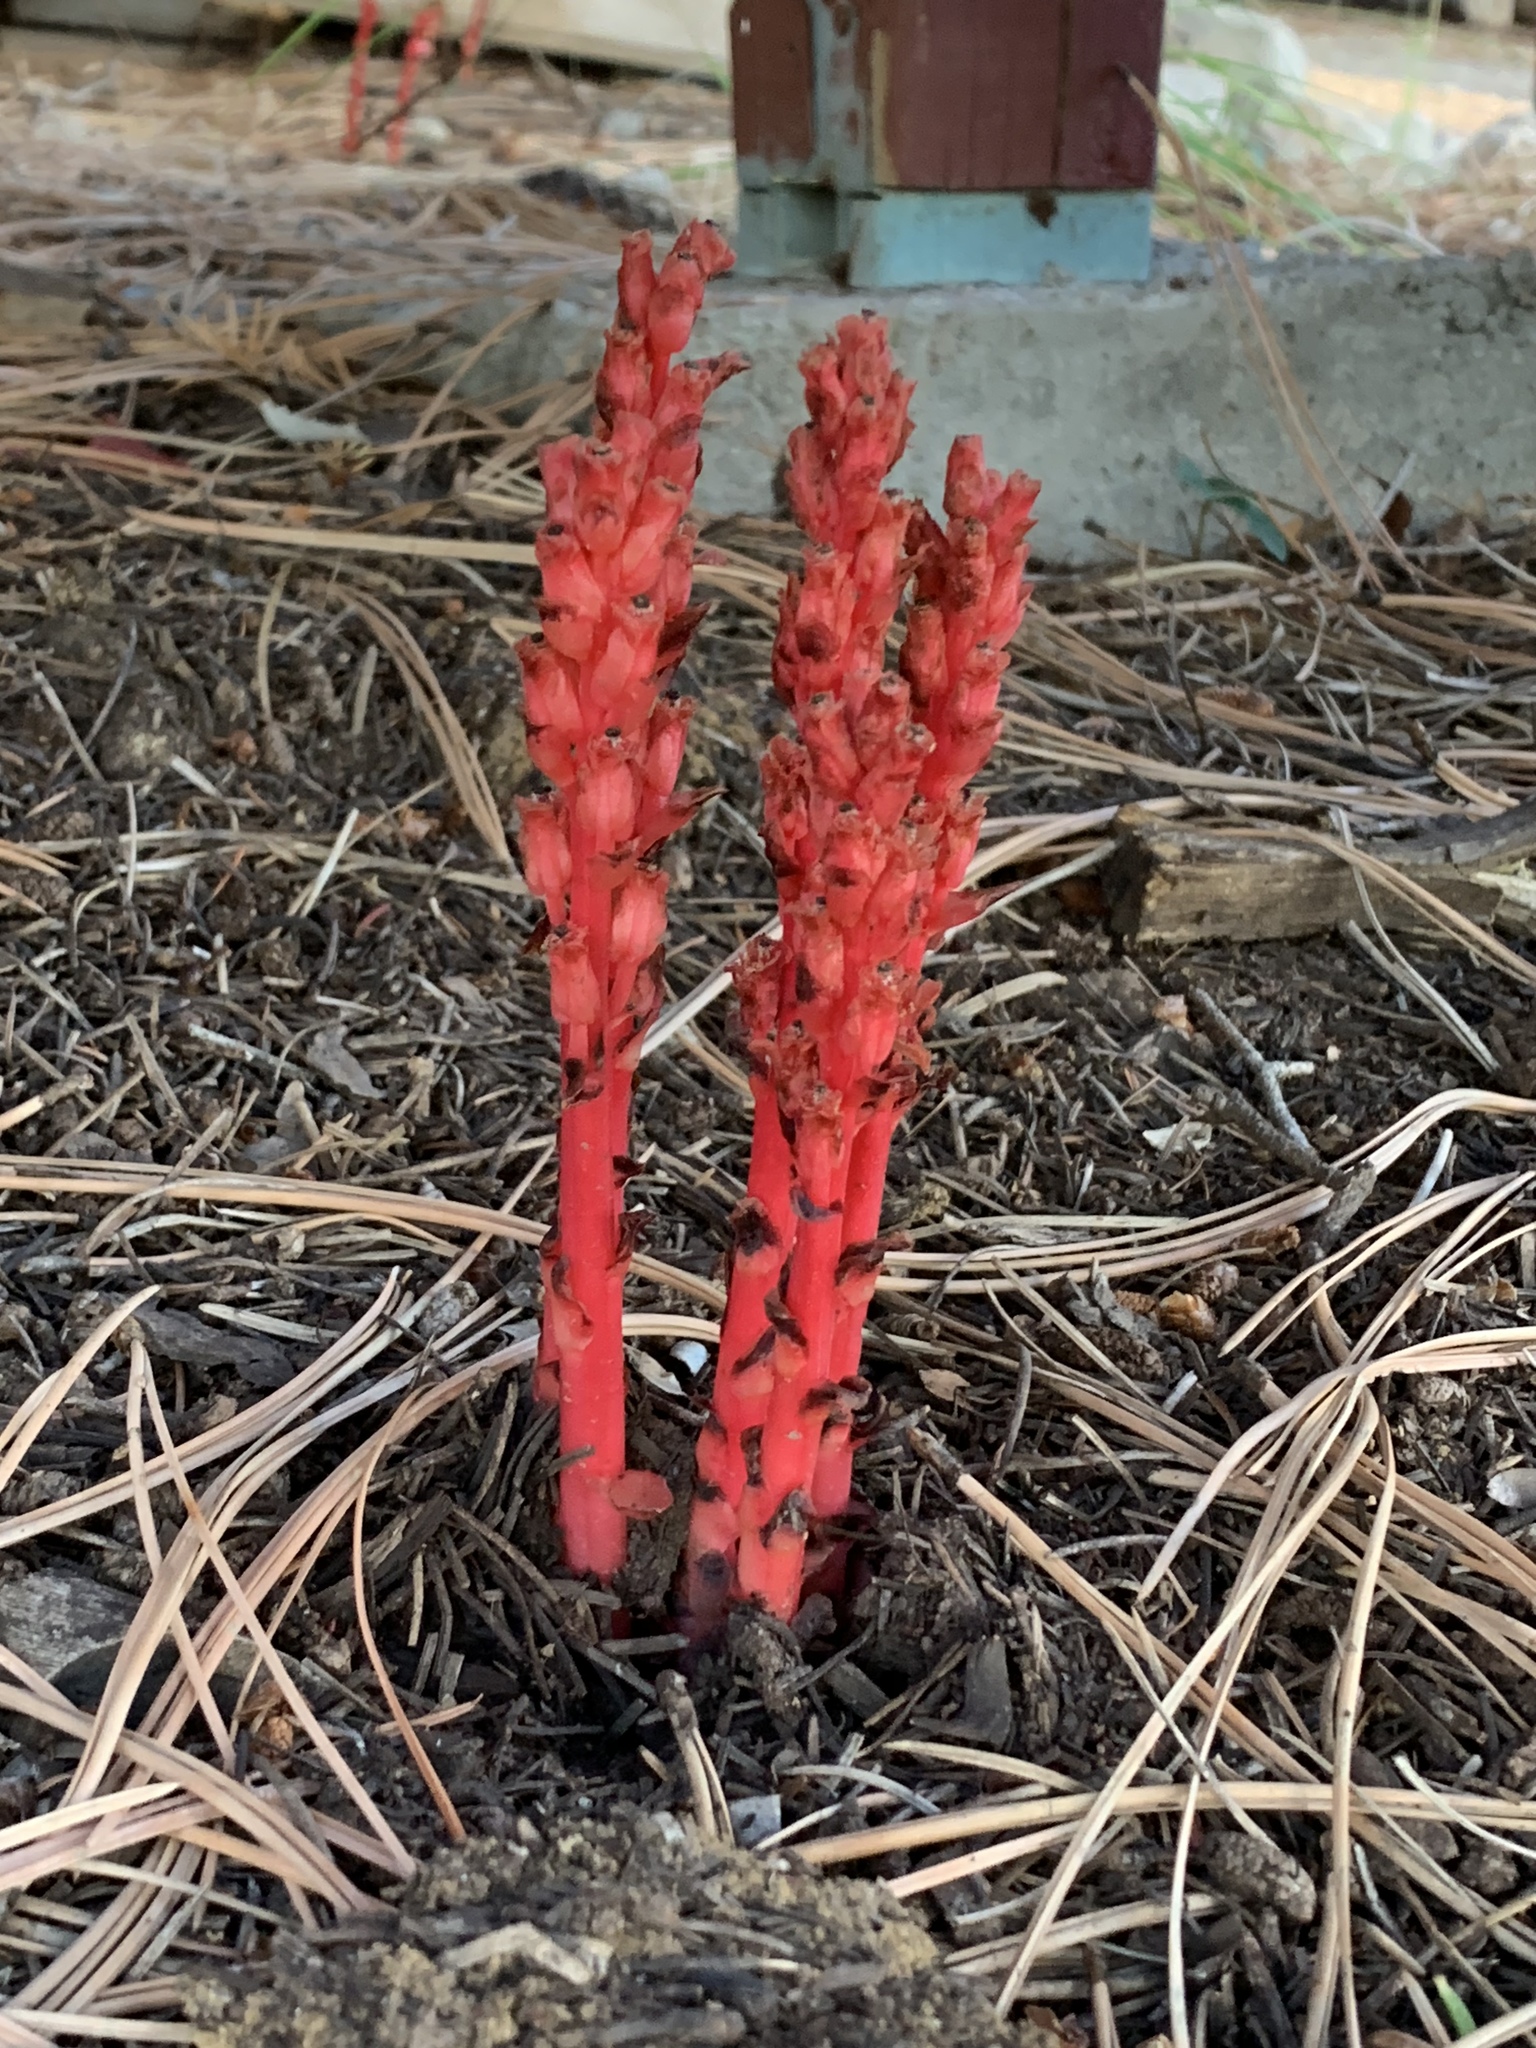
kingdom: Plantae
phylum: Tracheophyta
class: Magnoliopsida
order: Ericales
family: Ericaceae
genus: Hypopitys
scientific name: Hypopitys monotropa
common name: Yellow bird's-nest
